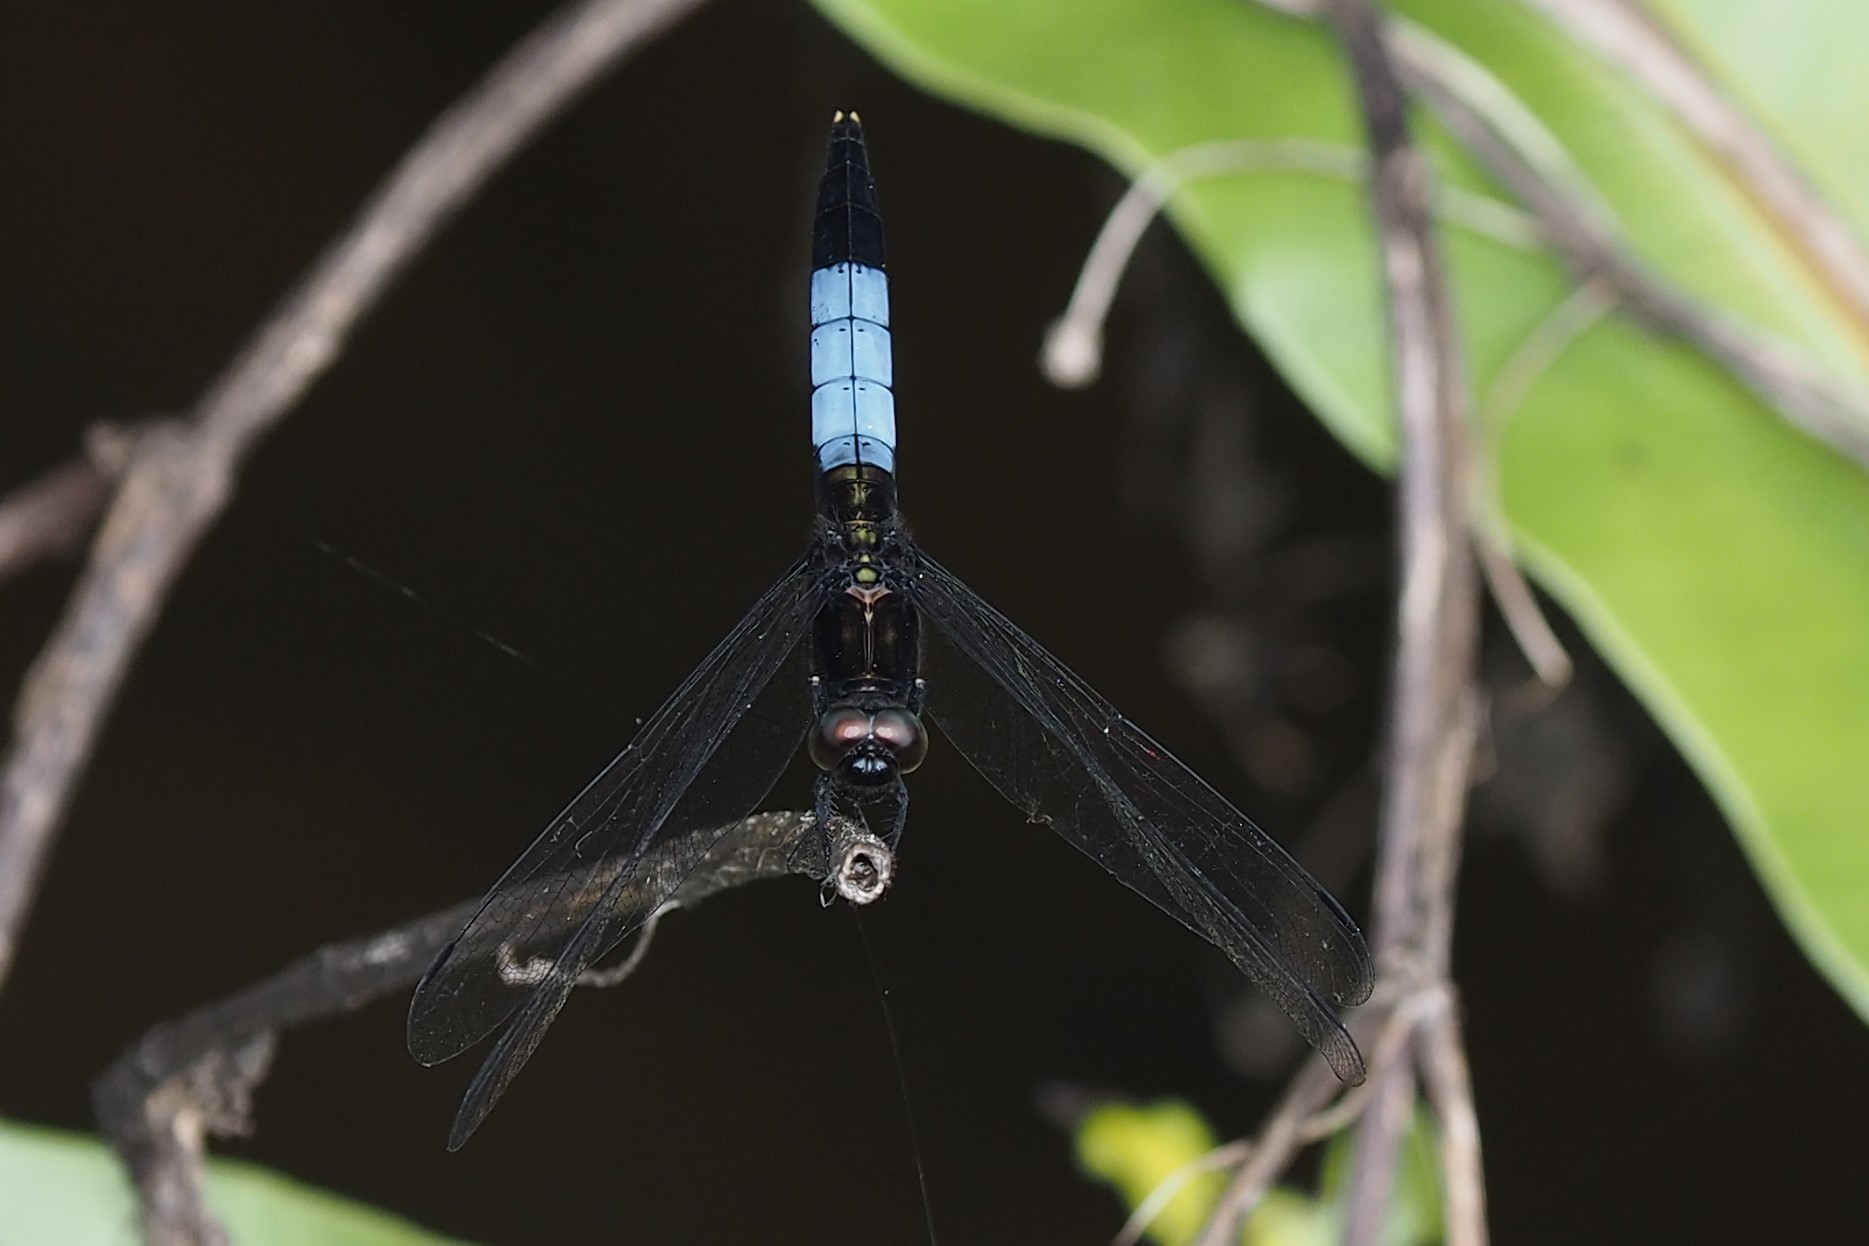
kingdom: Animalia
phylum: Arthropoda
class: Insecta
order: Odonata
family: Libellulidae
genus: Orthetrum
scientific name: Orthetrum triangulare
